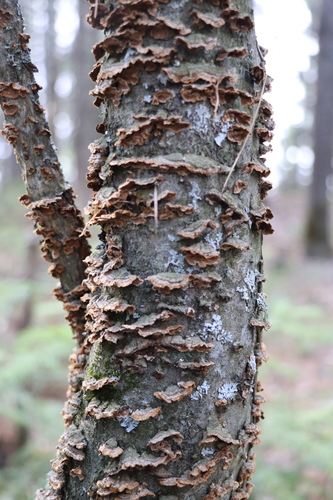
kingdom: Fungi
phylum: Basidiomycota
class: Agaricomycetes
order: Hymenochaetales
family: Hymenochaetaceae
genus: Hydnoporia
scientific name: Hydnoporia tabacina
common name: Willow glue
